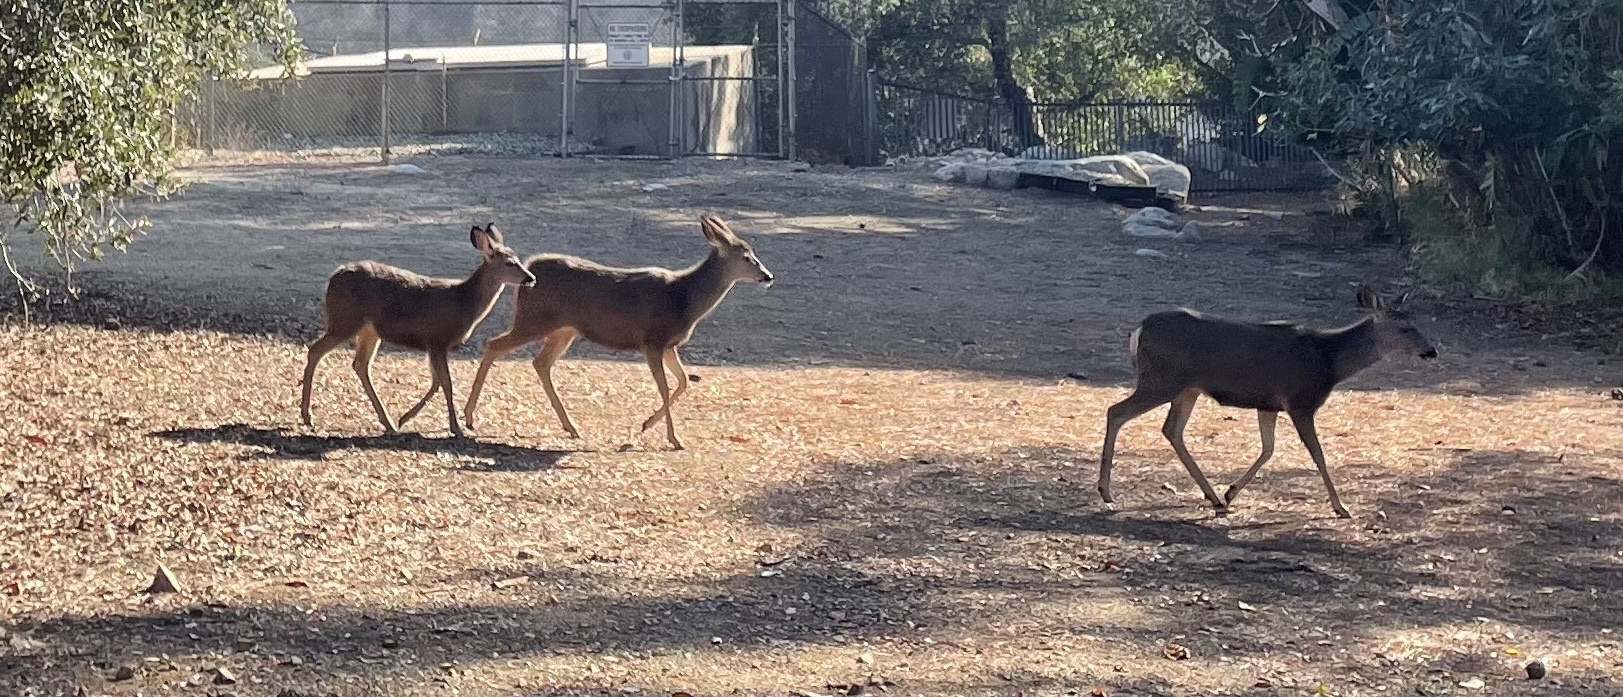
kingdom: Animalia
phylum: Chordata
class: Mammalia
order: Artiodactyla
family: Cervidae
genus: Odocoileus
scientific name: Odocoileus hemionus
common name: Mule deer
